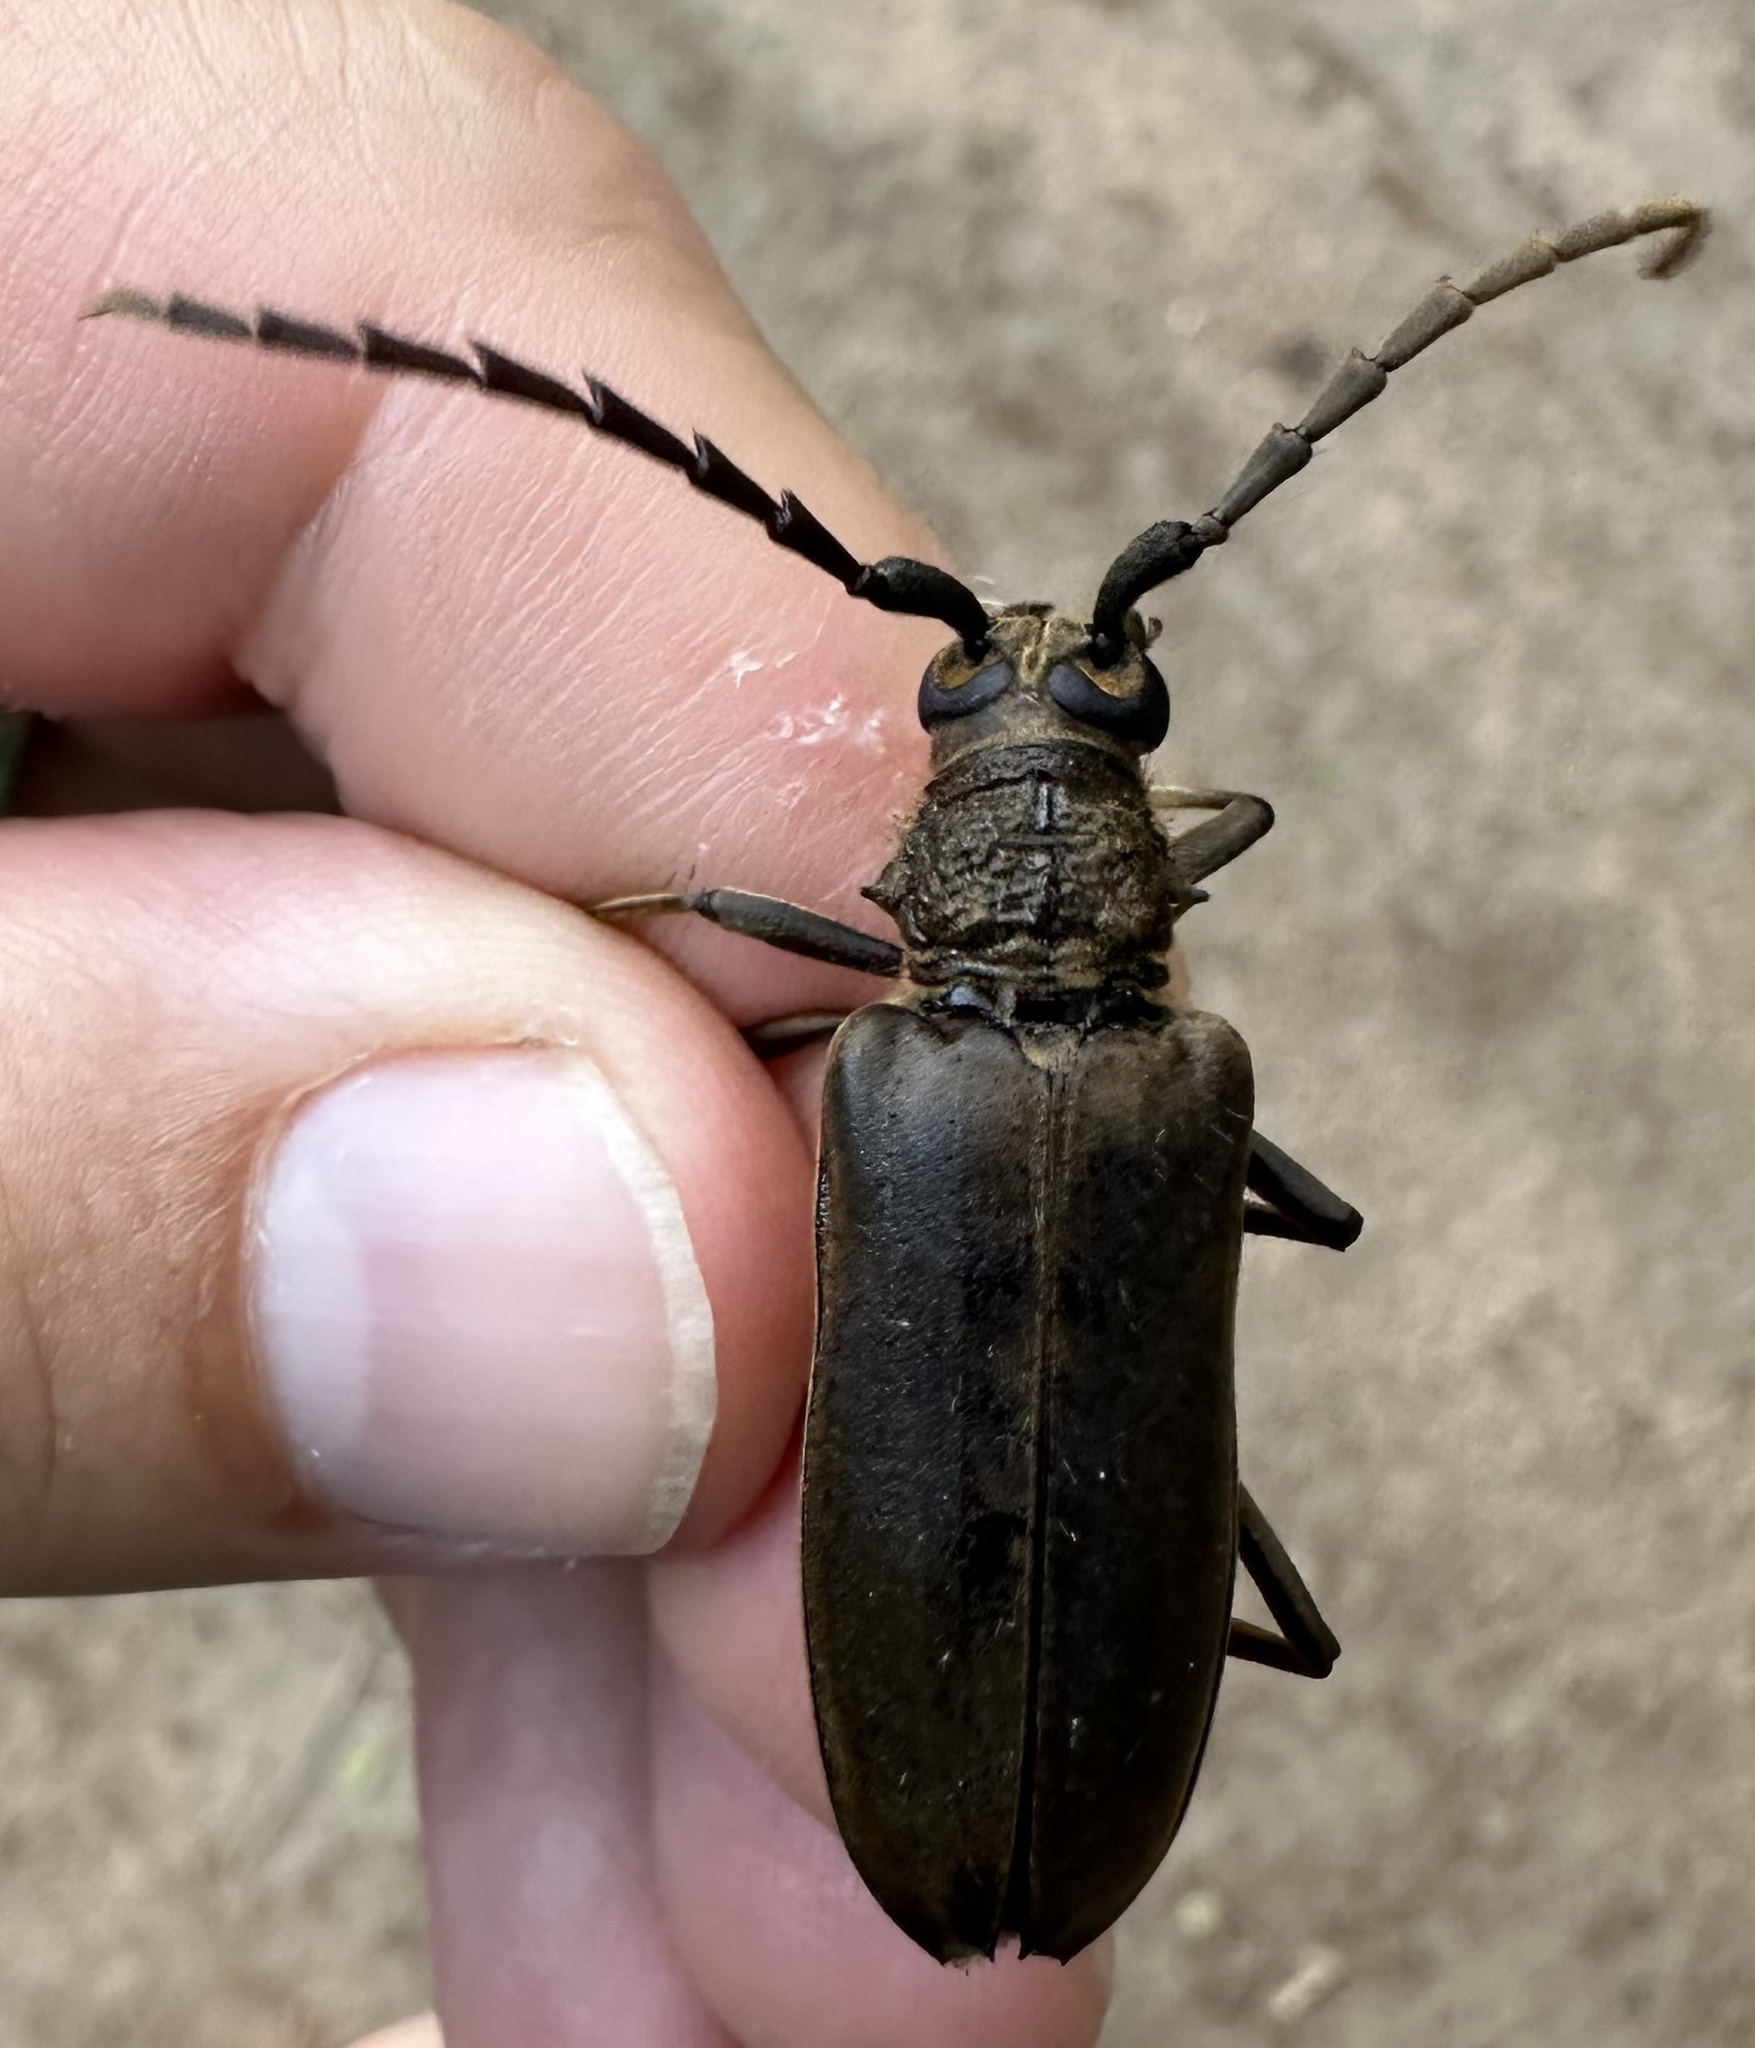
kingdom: Animalia
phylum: Arthropoda
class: Insecta
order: Coleoptera
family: Cerambycidae
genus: Prosphilus
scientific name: Prosphilus serraticornis
